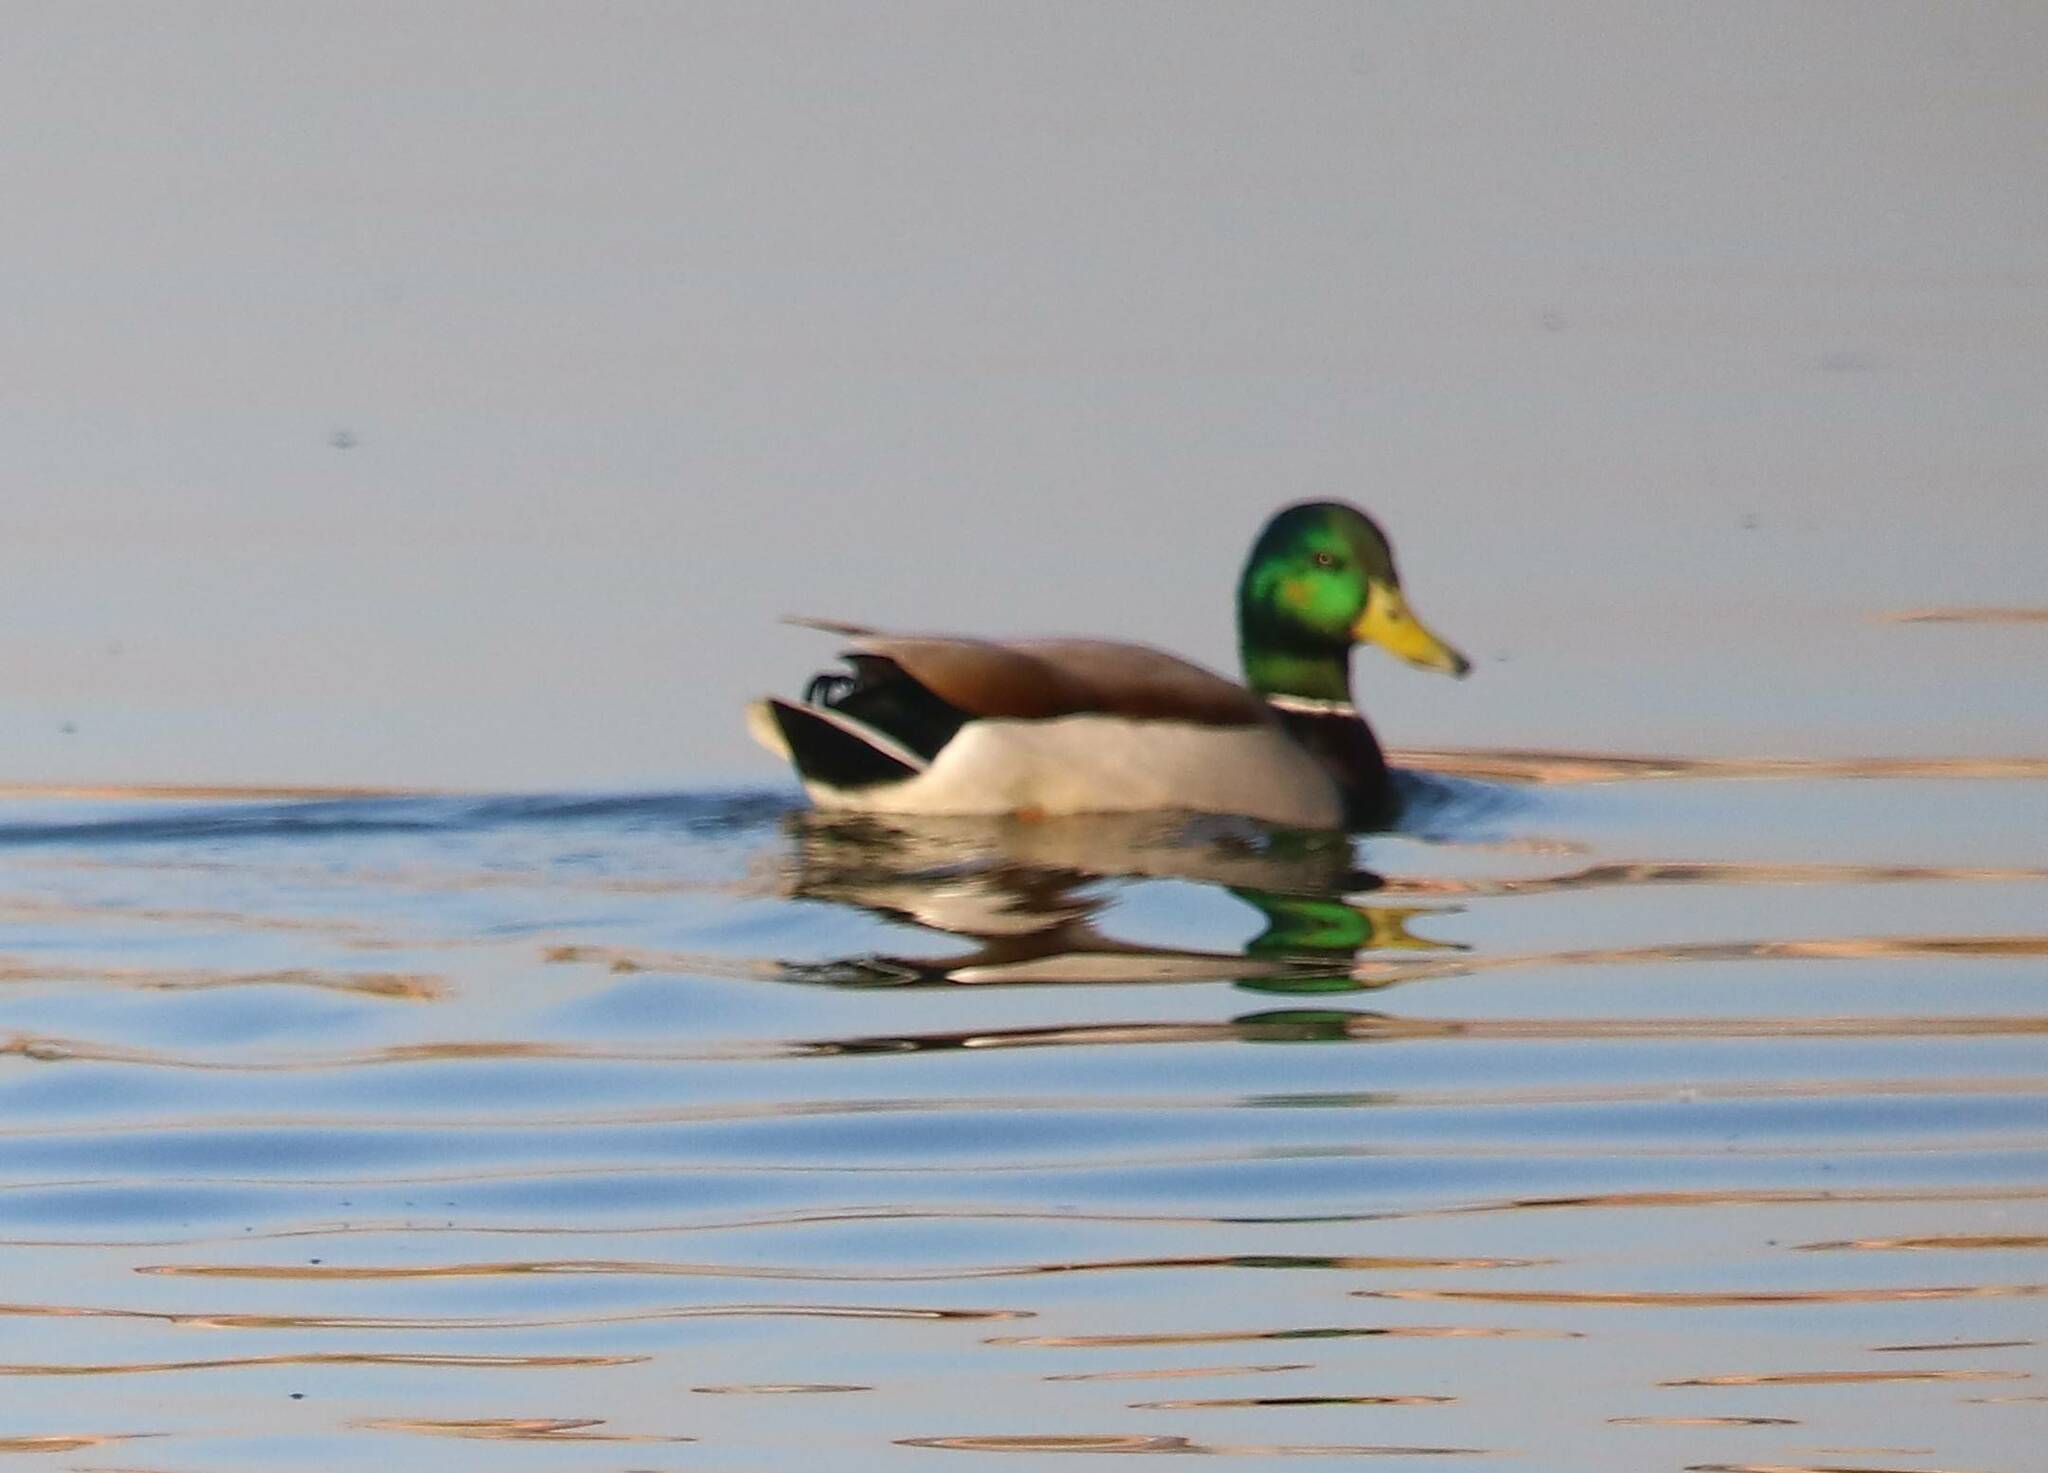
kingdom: Animalia
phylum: Chordata
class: Aves
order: Anseriformes
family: Anatidae
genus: Anas
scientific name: Anas platyrhynchos
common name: Mallard
